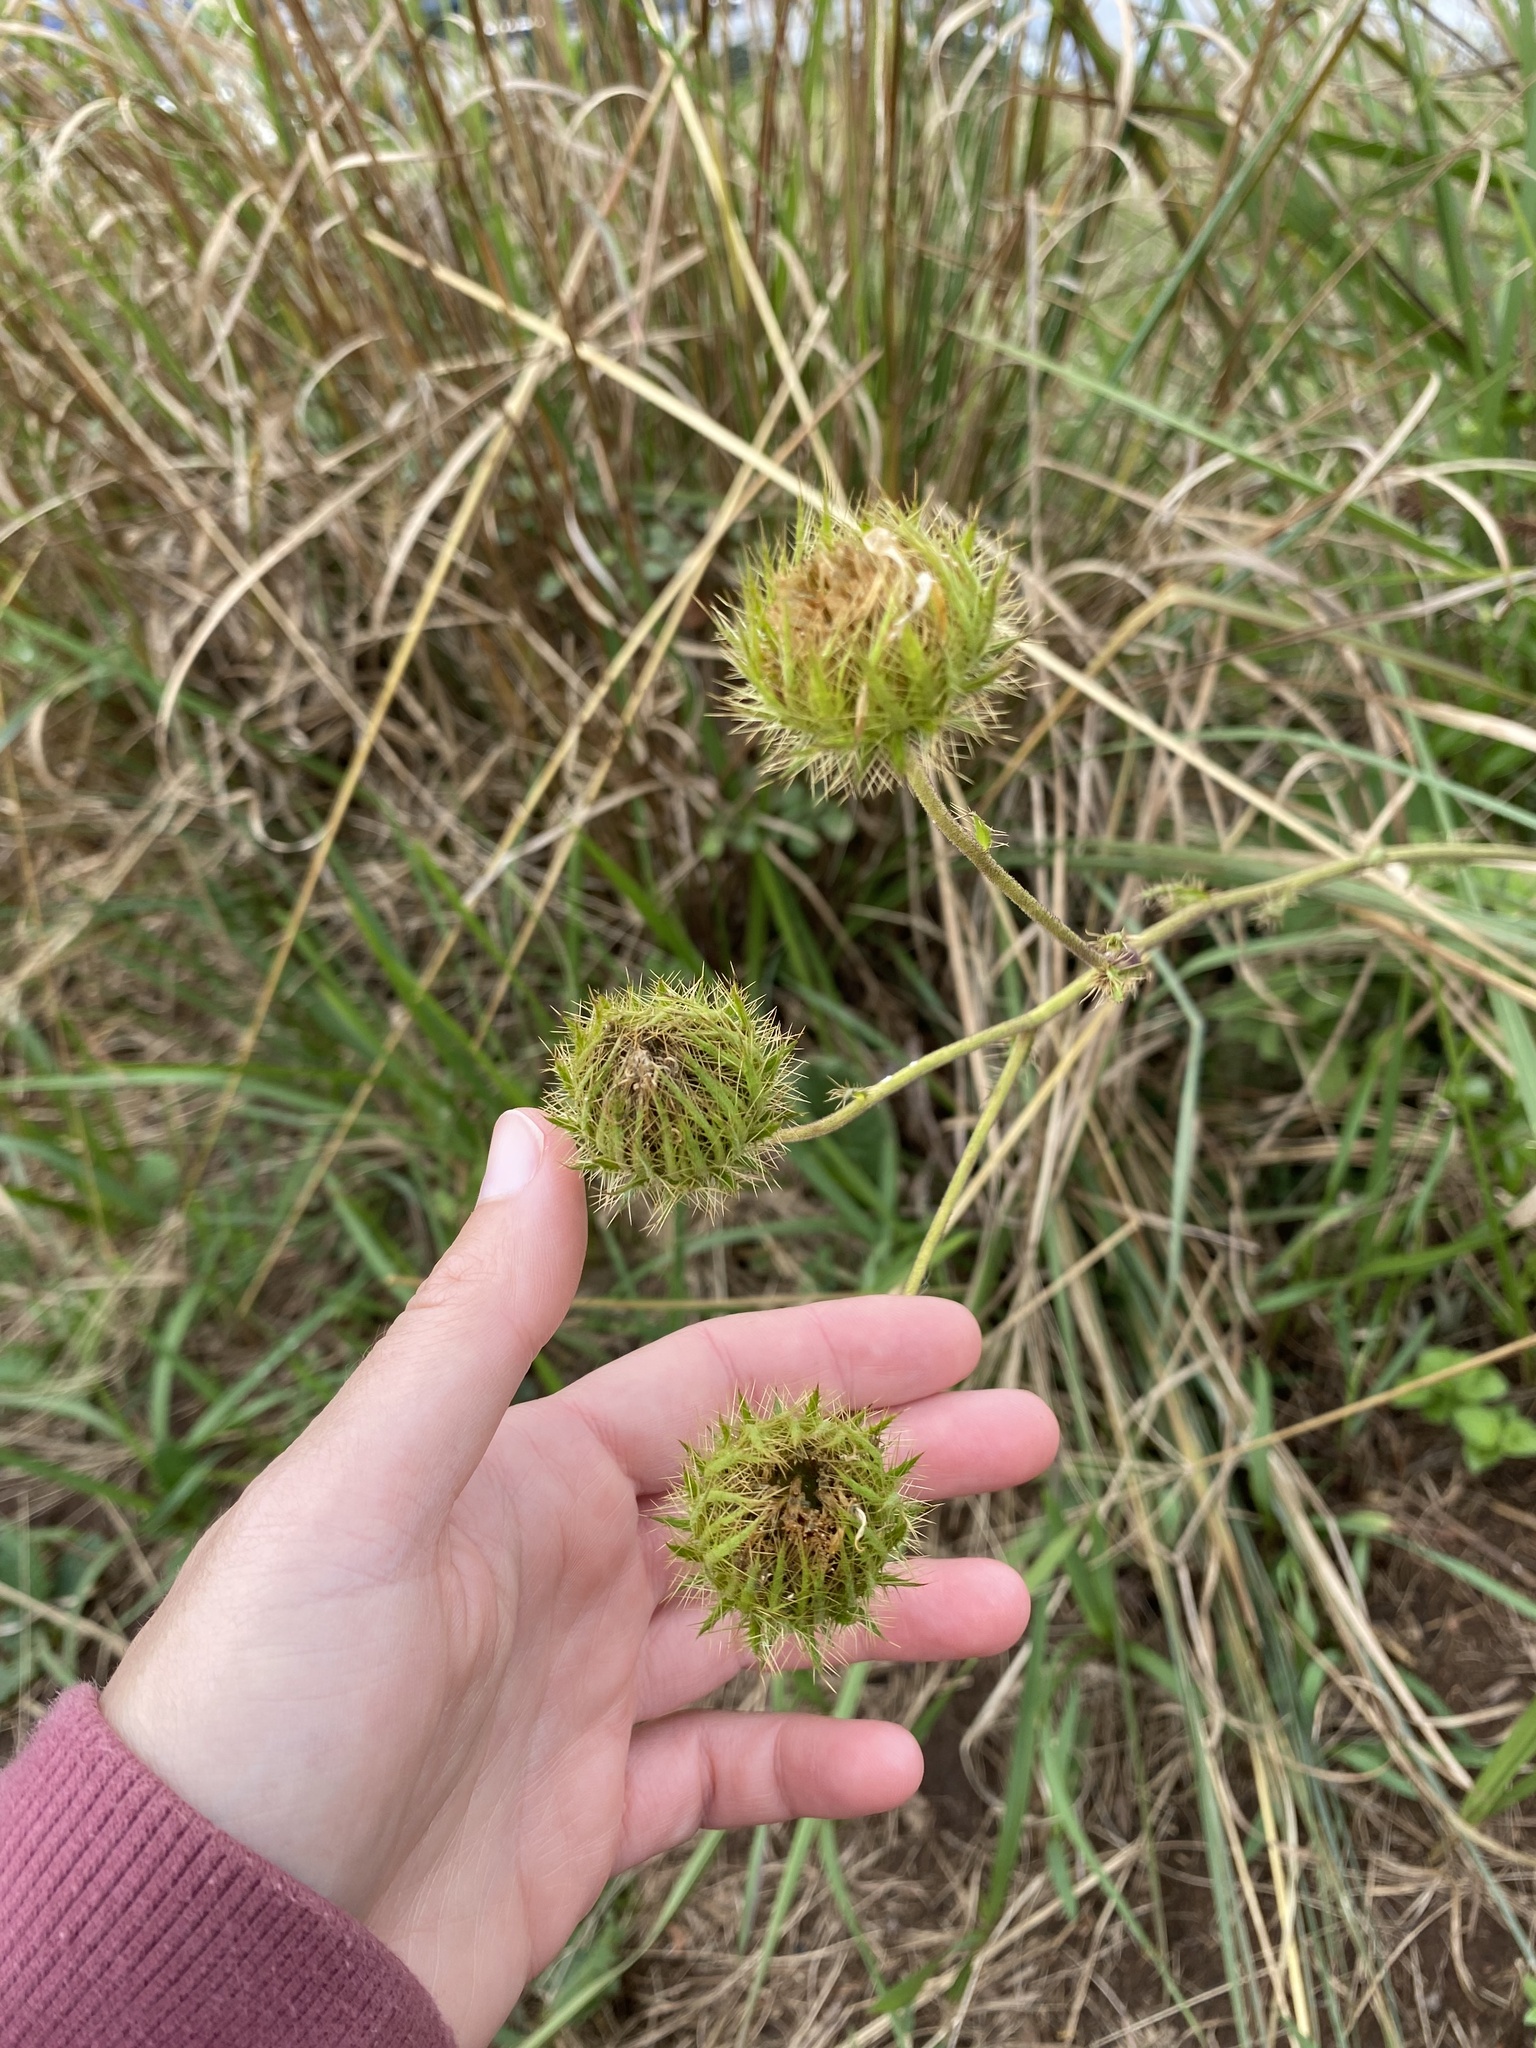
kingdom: Plantae
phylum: Tracheophyta
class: Magnoliopsida
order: Asterales
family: Asteraceae
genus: Berkheya
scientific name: Berkheya speciosa
